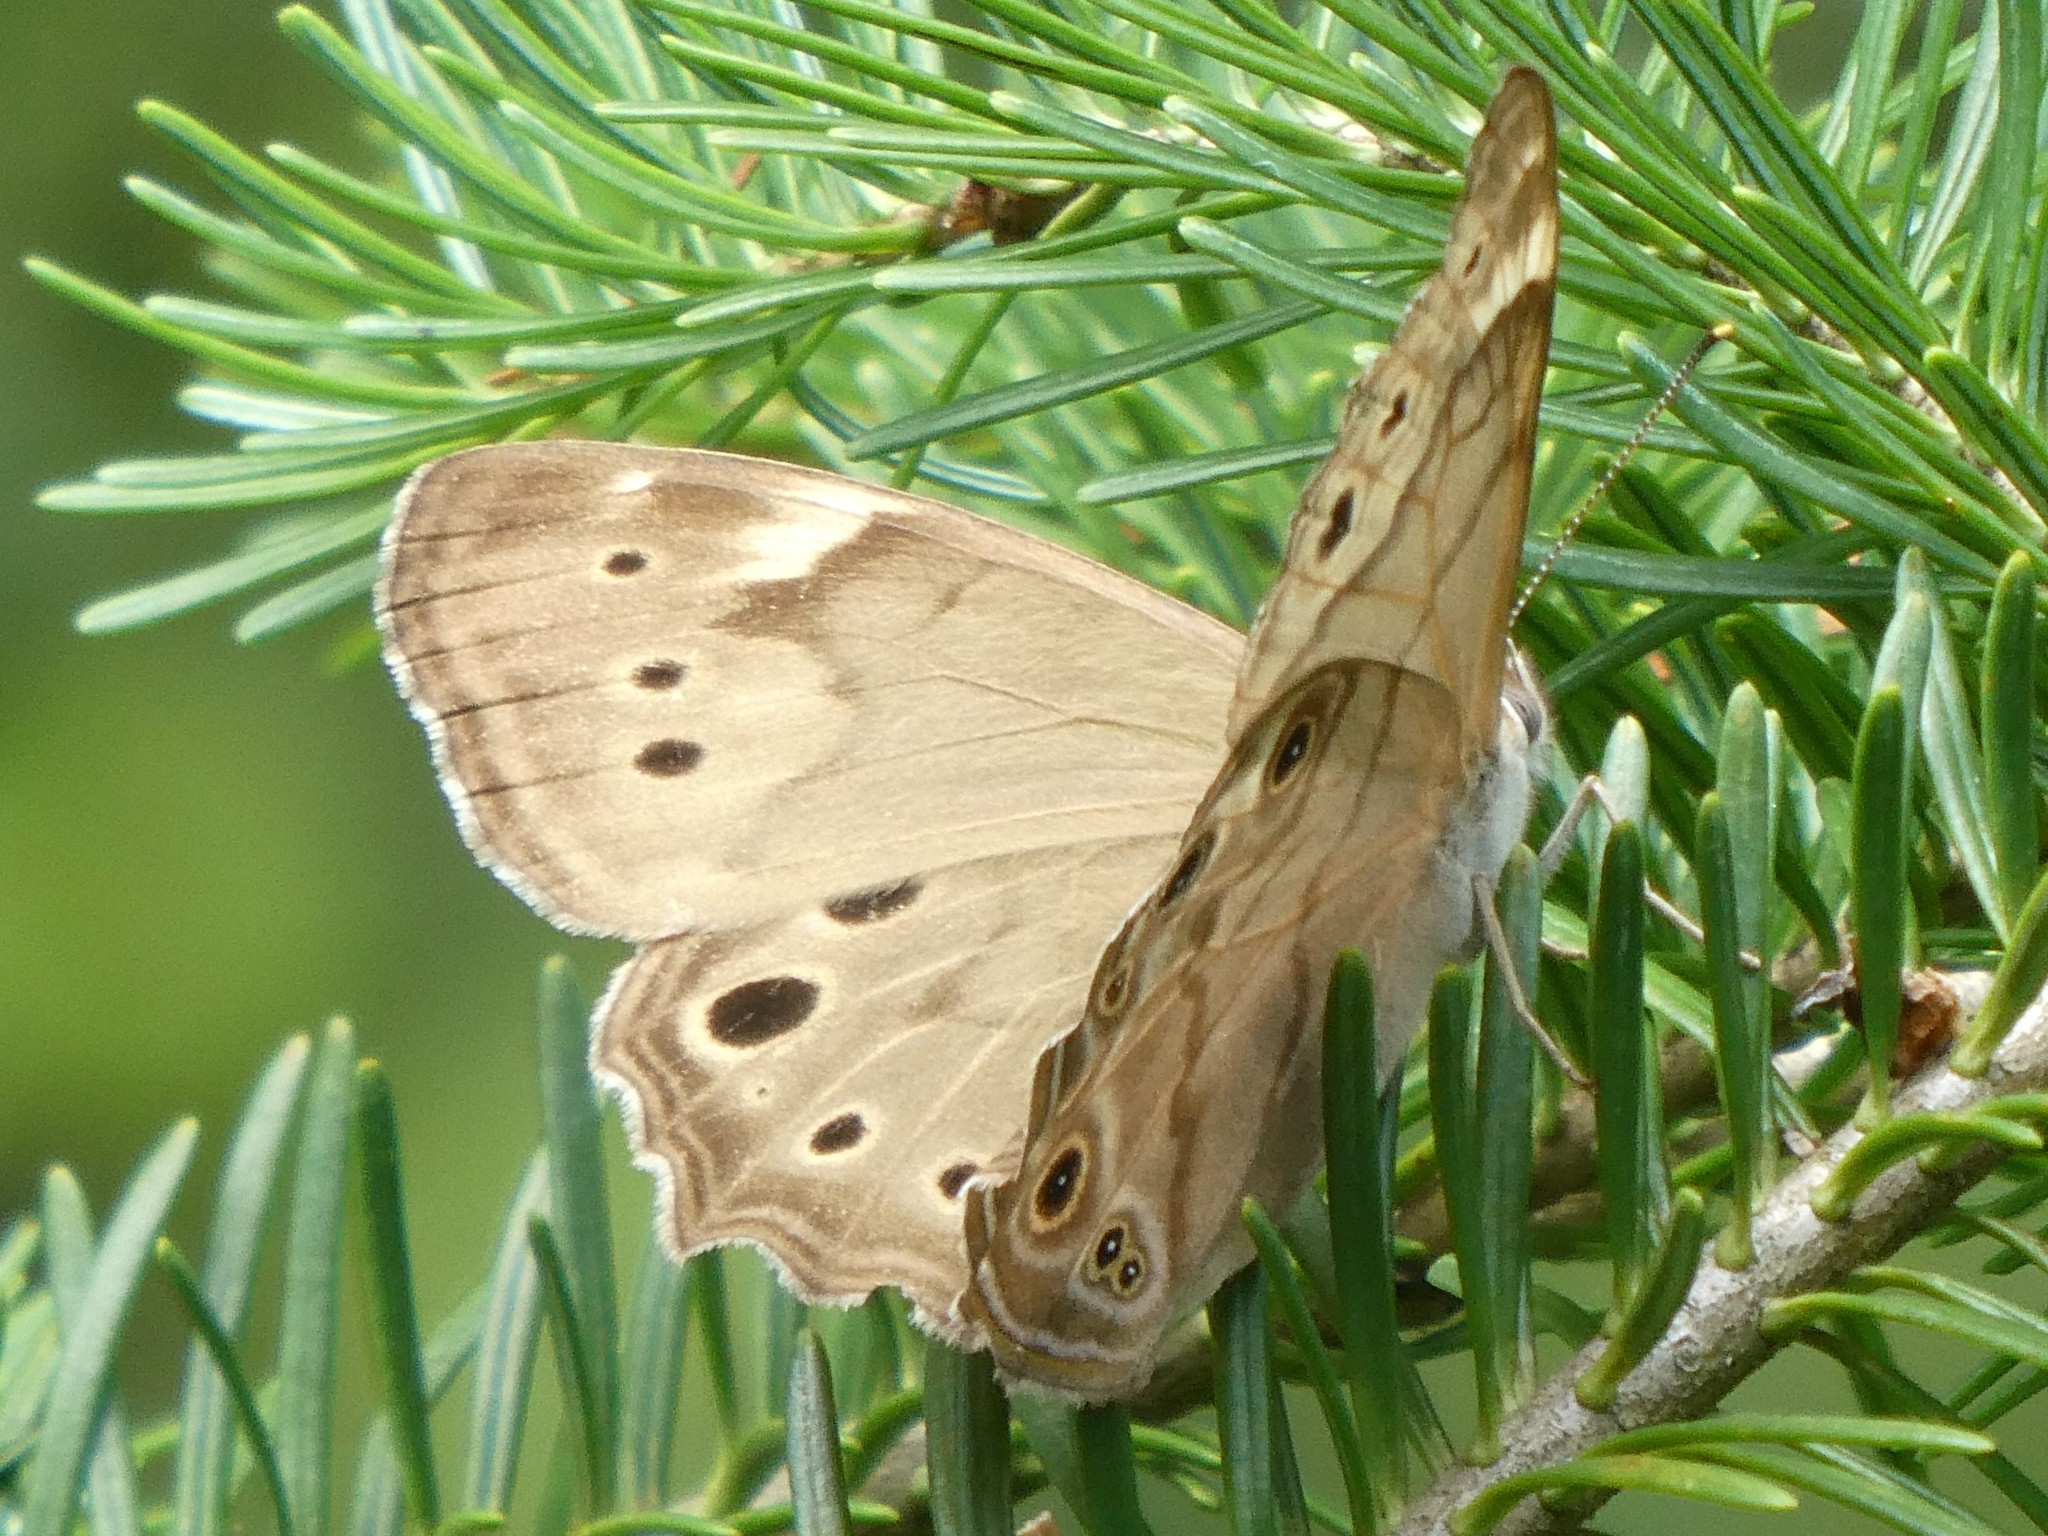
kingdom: Animalia
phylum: Arthropoda
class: Insecta
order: Lepidoptera
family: Nymphalidae
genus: Lethe
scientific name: Lethe anthedon
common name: Northern pearly-eye
